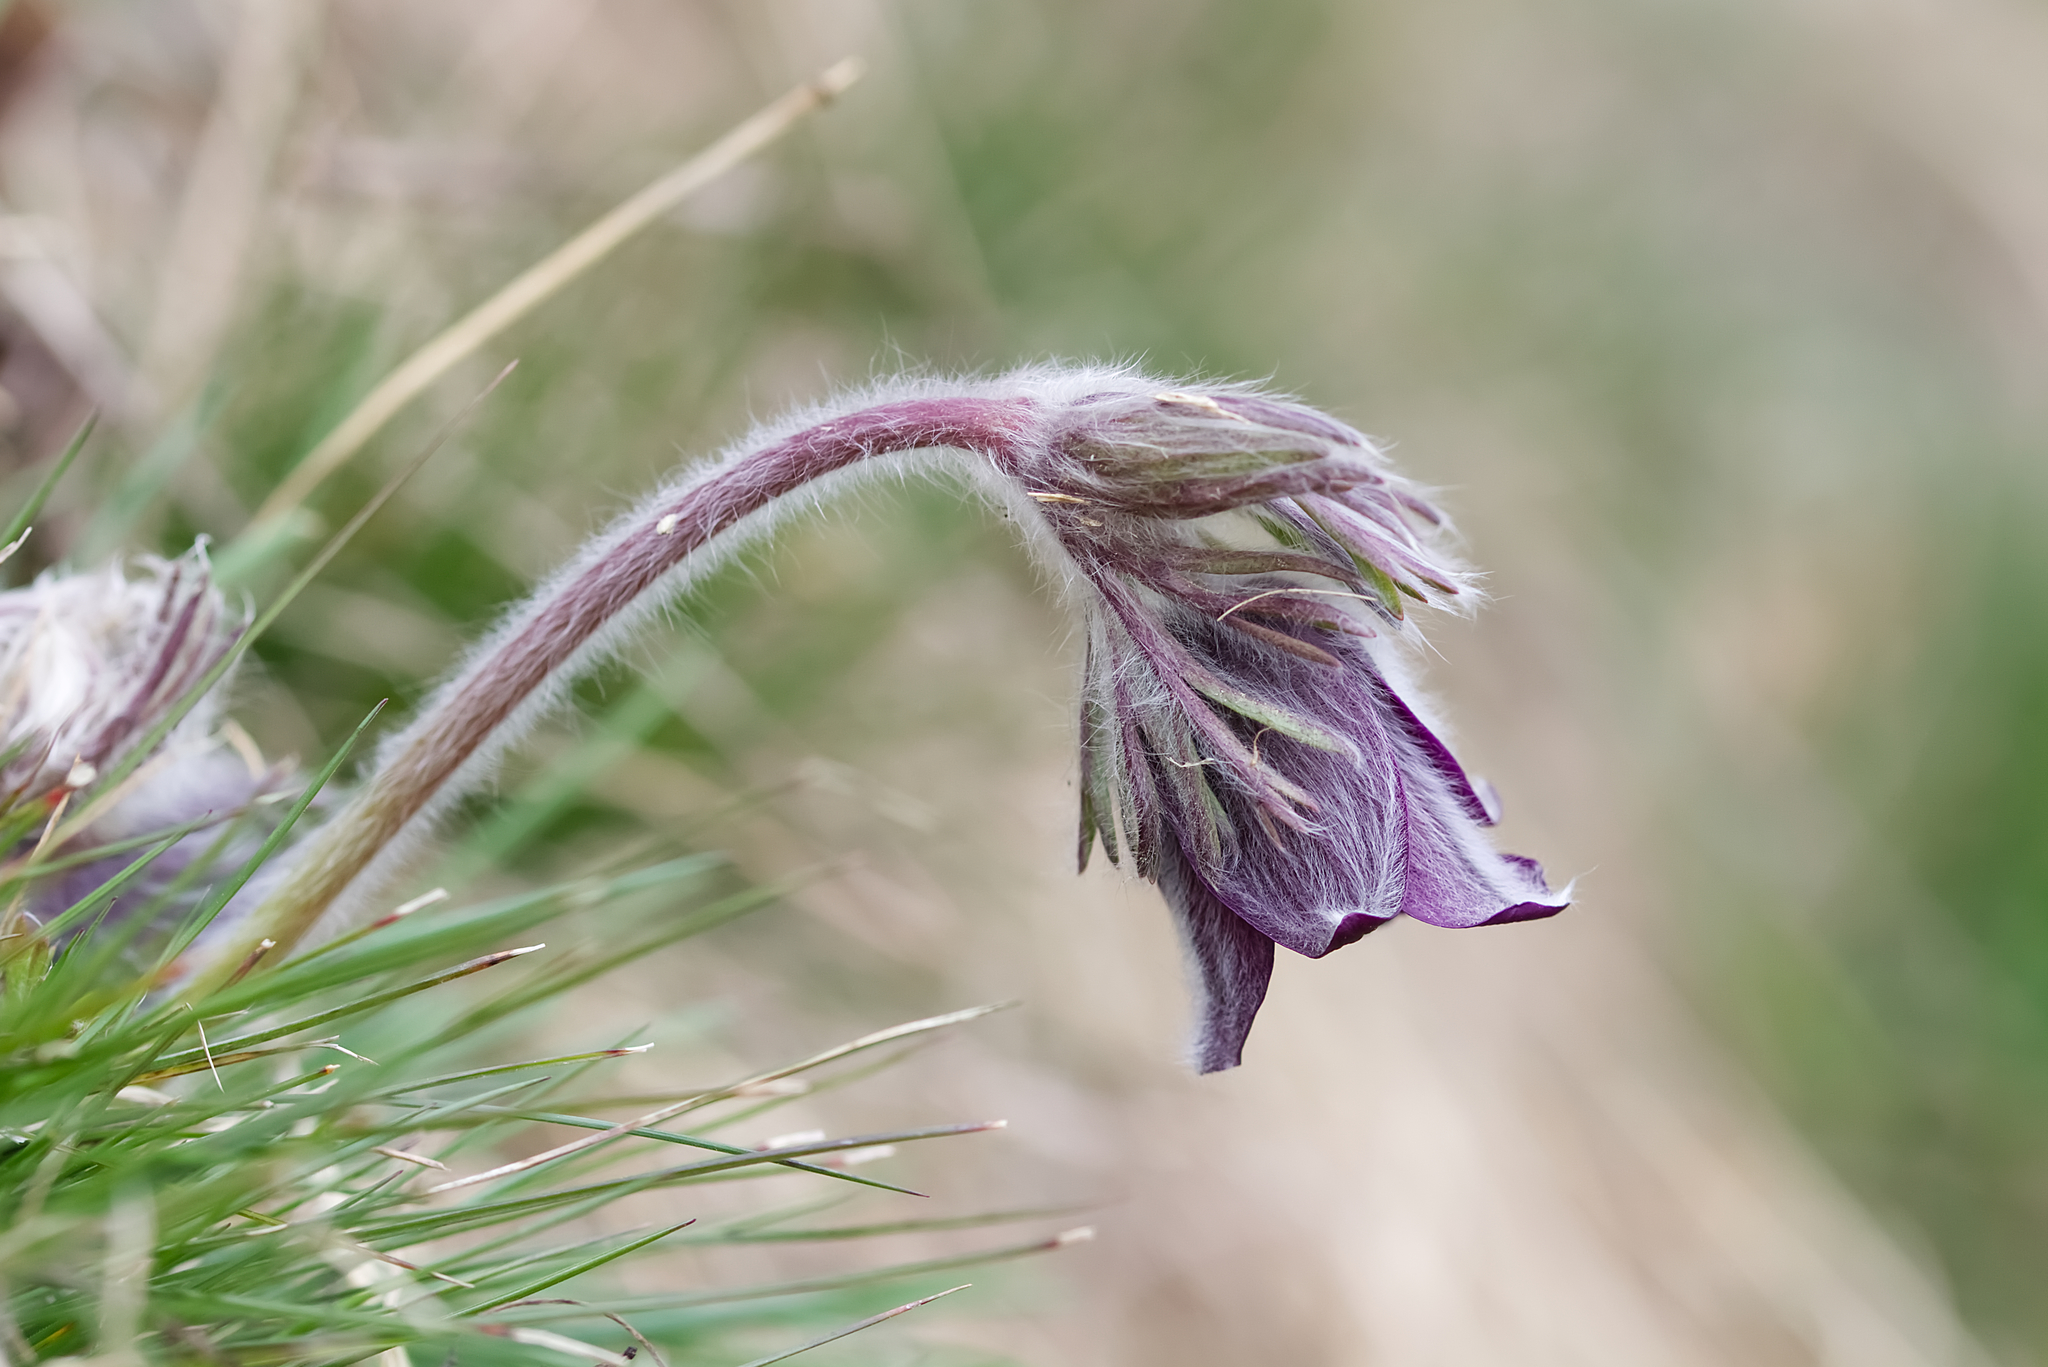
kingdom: Plantae
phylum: Tracheophyta
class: Magnoliopsida
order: Ranunculales
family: Ranunculaceae
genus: Pulsatilla
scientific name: Pulsatilla pratensis
